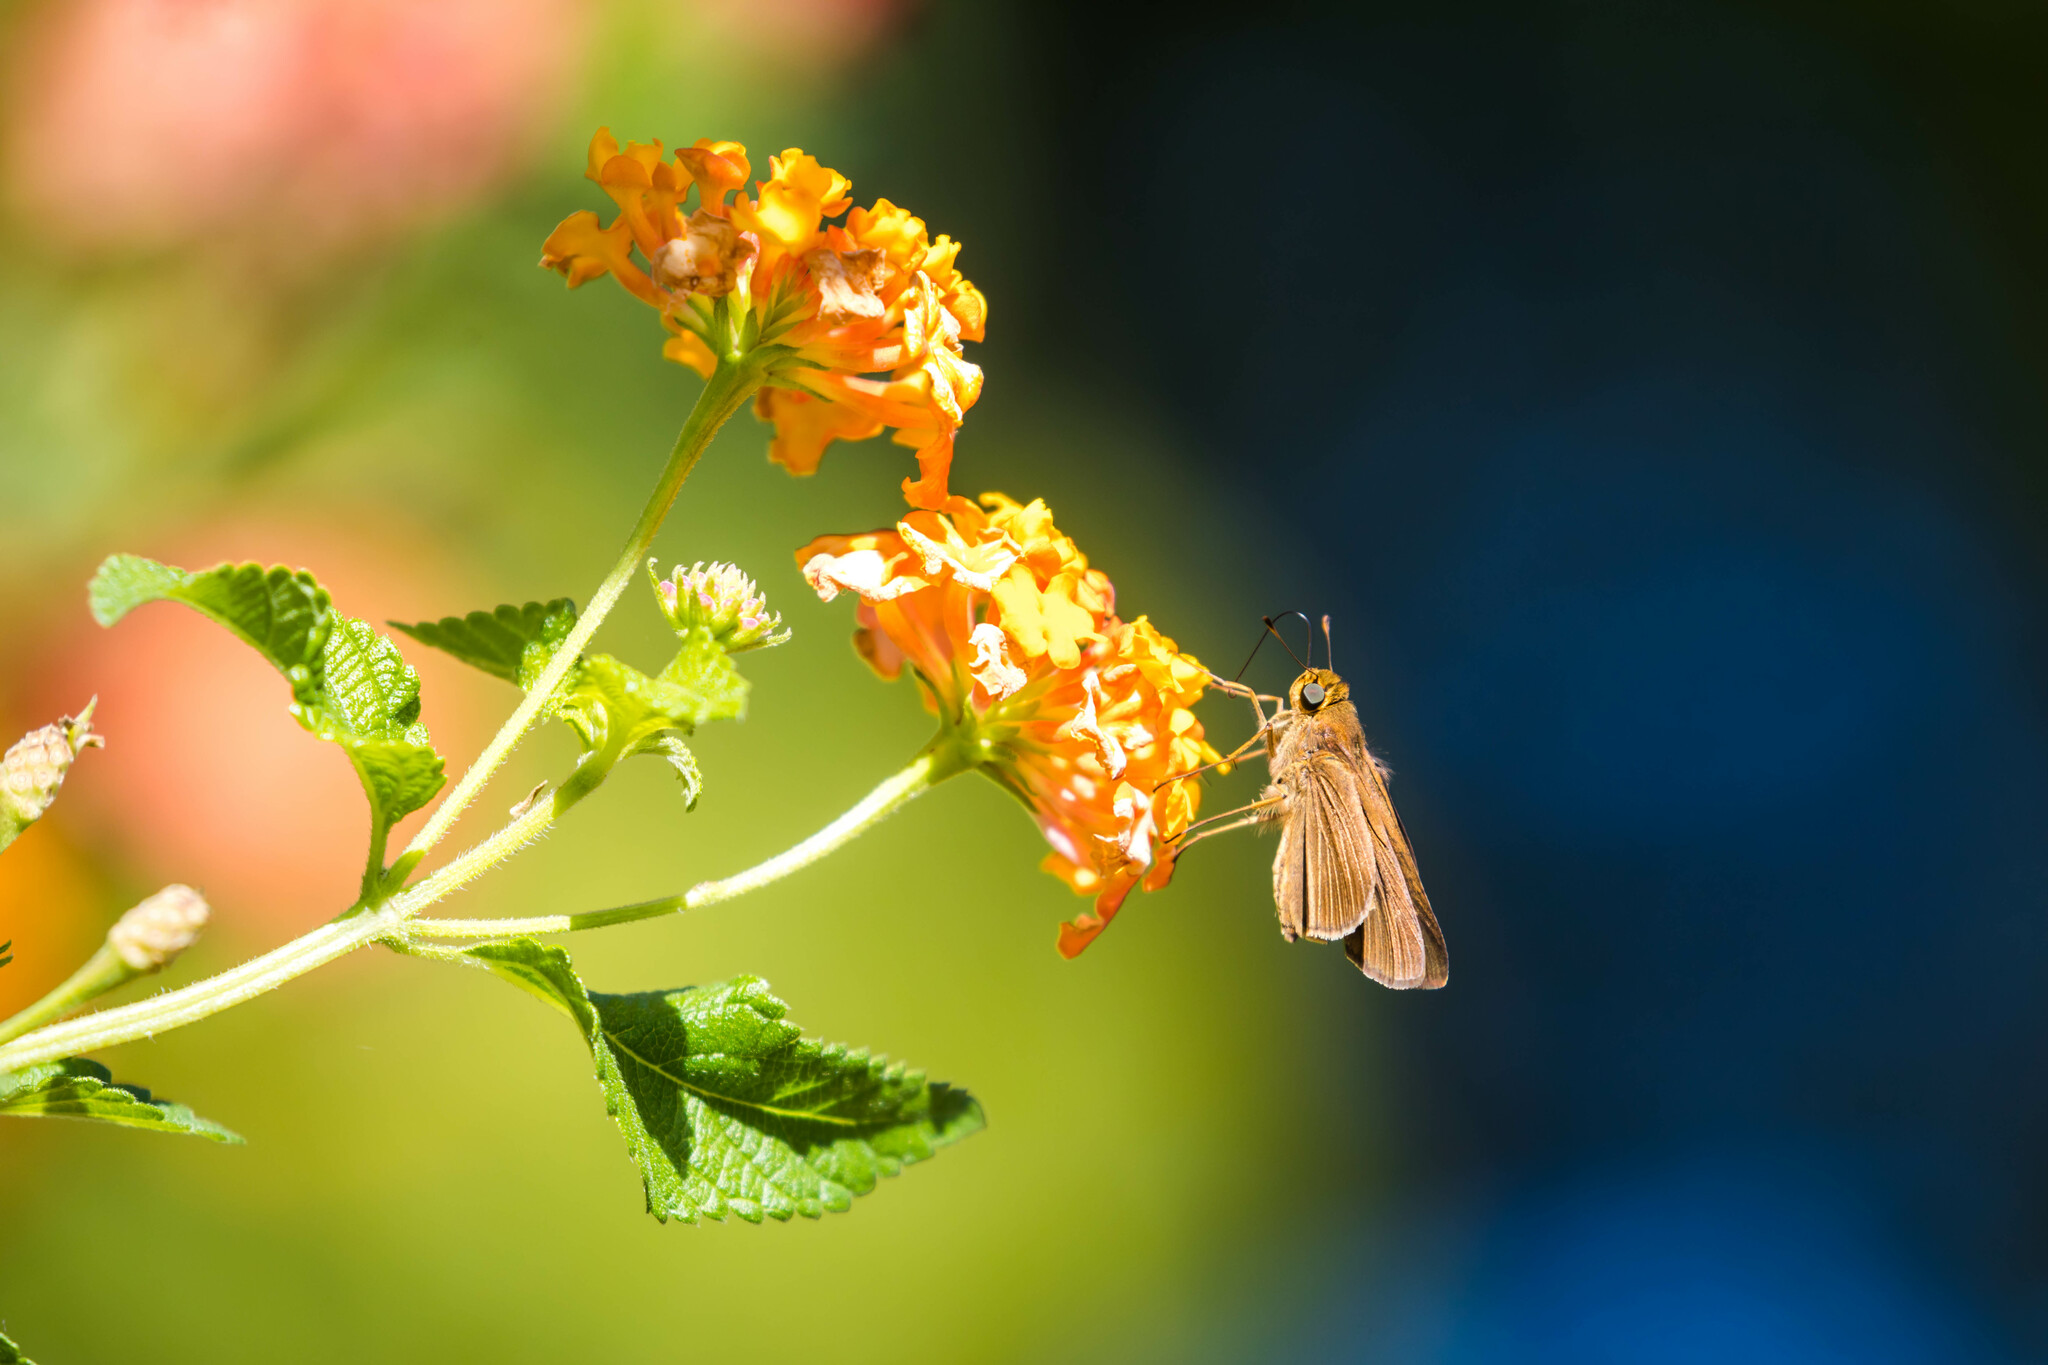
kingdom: Animalia
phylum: Arthropoda
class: Insecta
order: Lepidoptera
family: Hesperiidae
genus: Panoquina
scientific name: Panoquina ocola
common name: Ocola skipper
